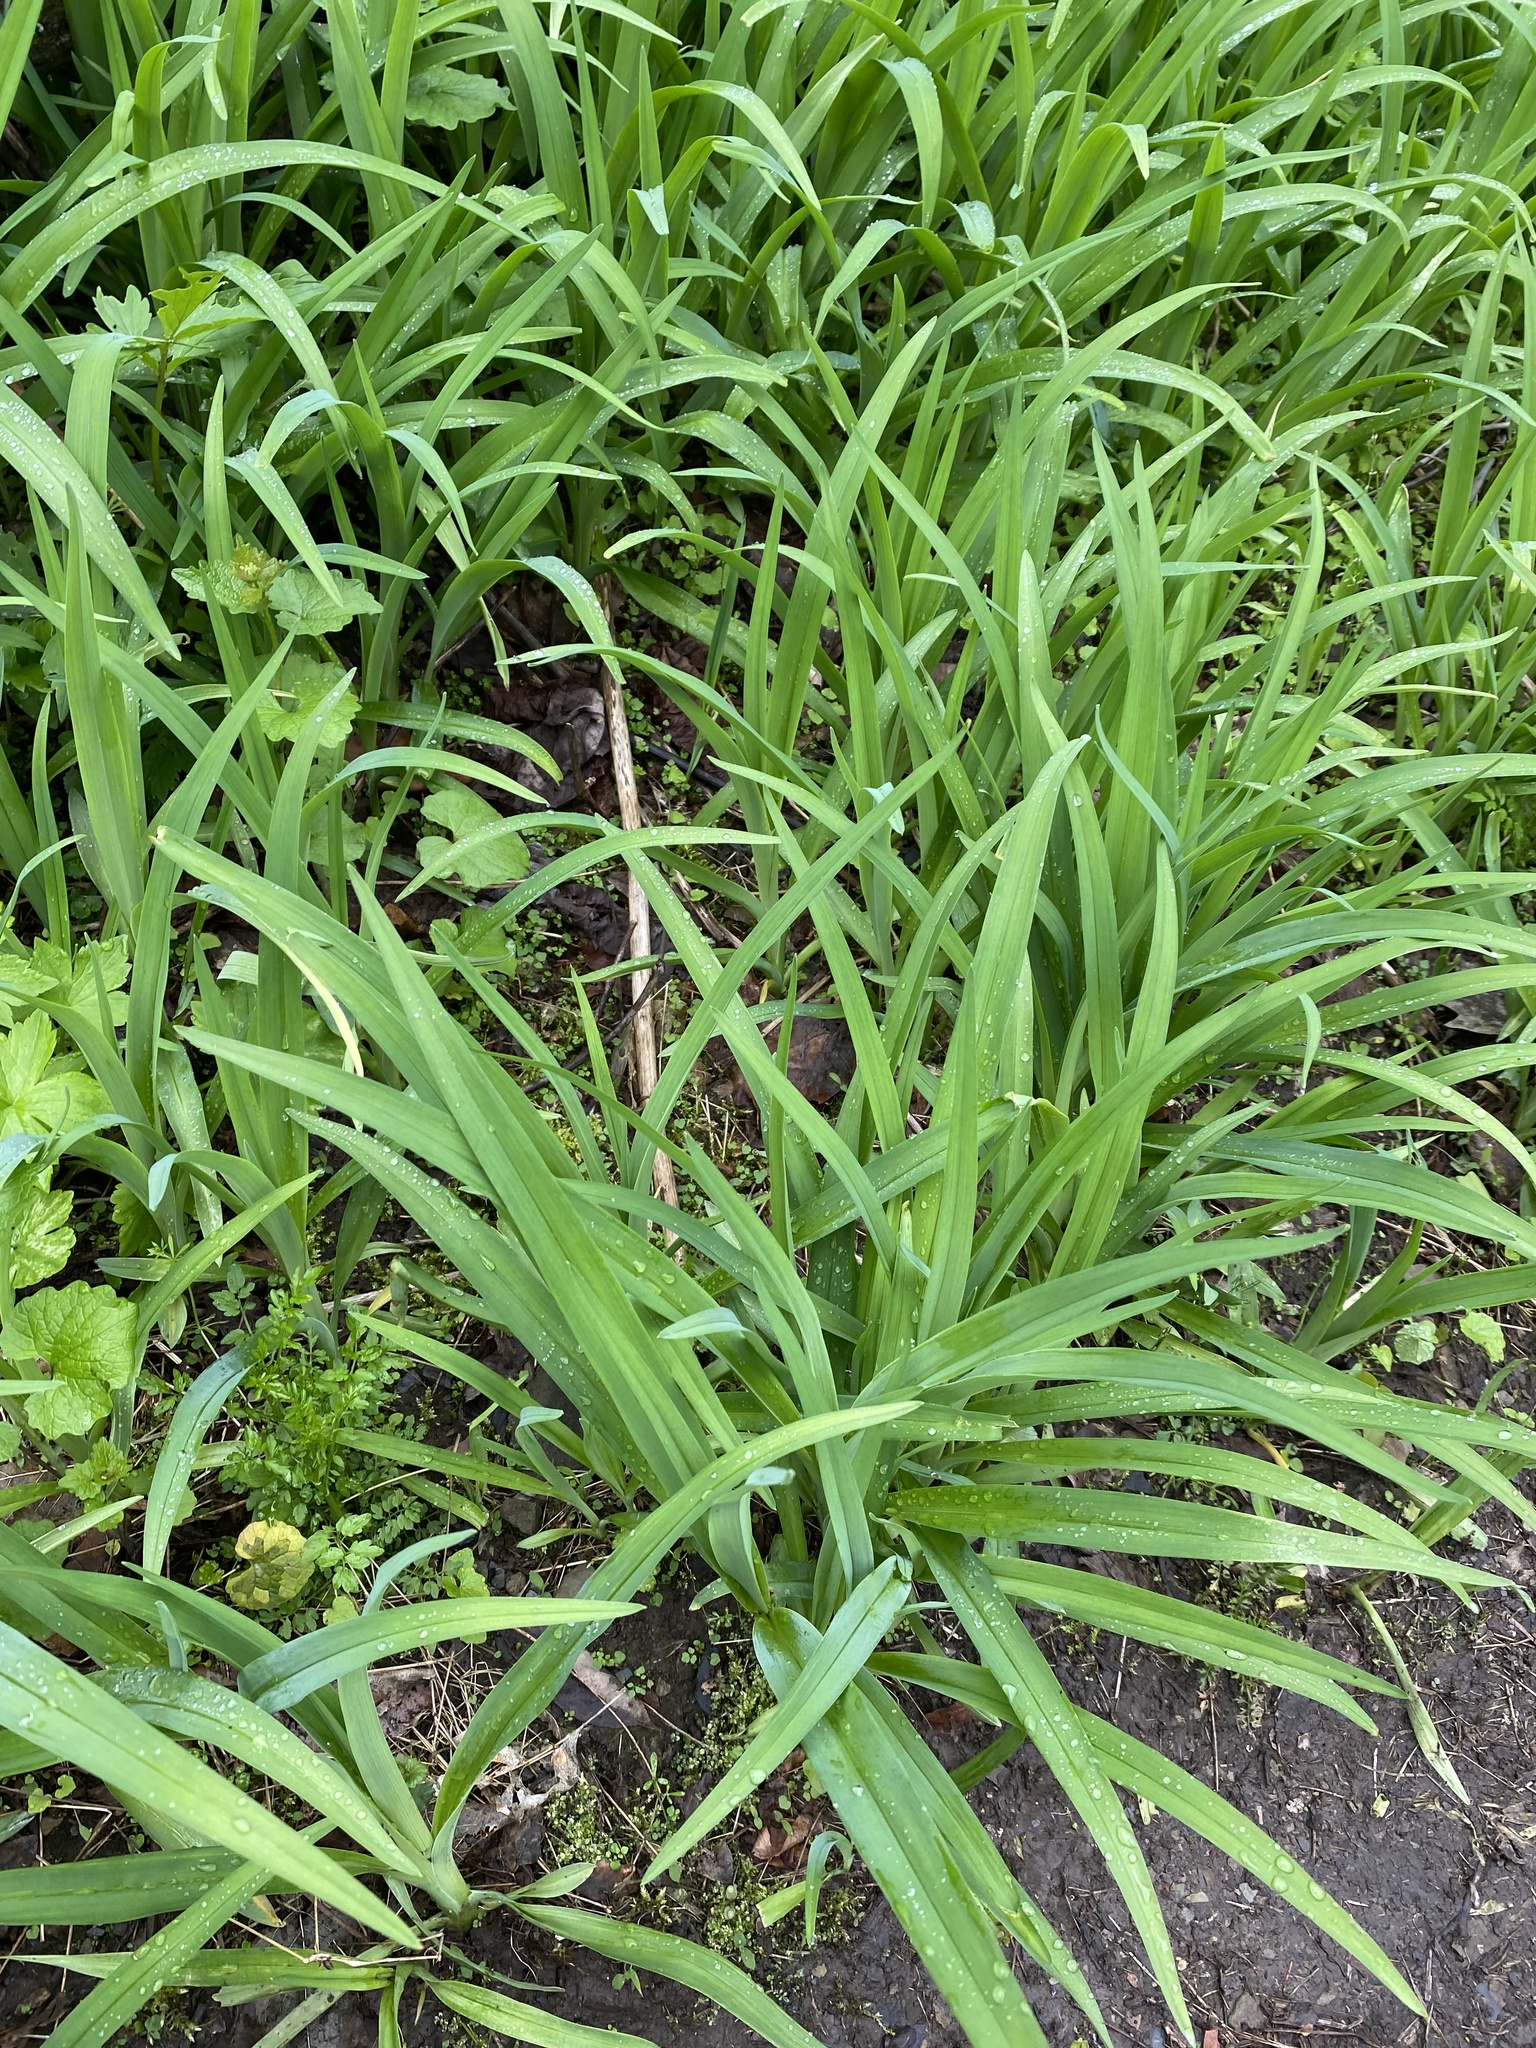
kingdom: Plantae
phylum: Tracheophyta
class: Liliopsida
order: Asparagales
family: Asphodelaceae
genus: Hemerocallis
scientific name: Hemerocallis fulva
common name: Orange day-lily
